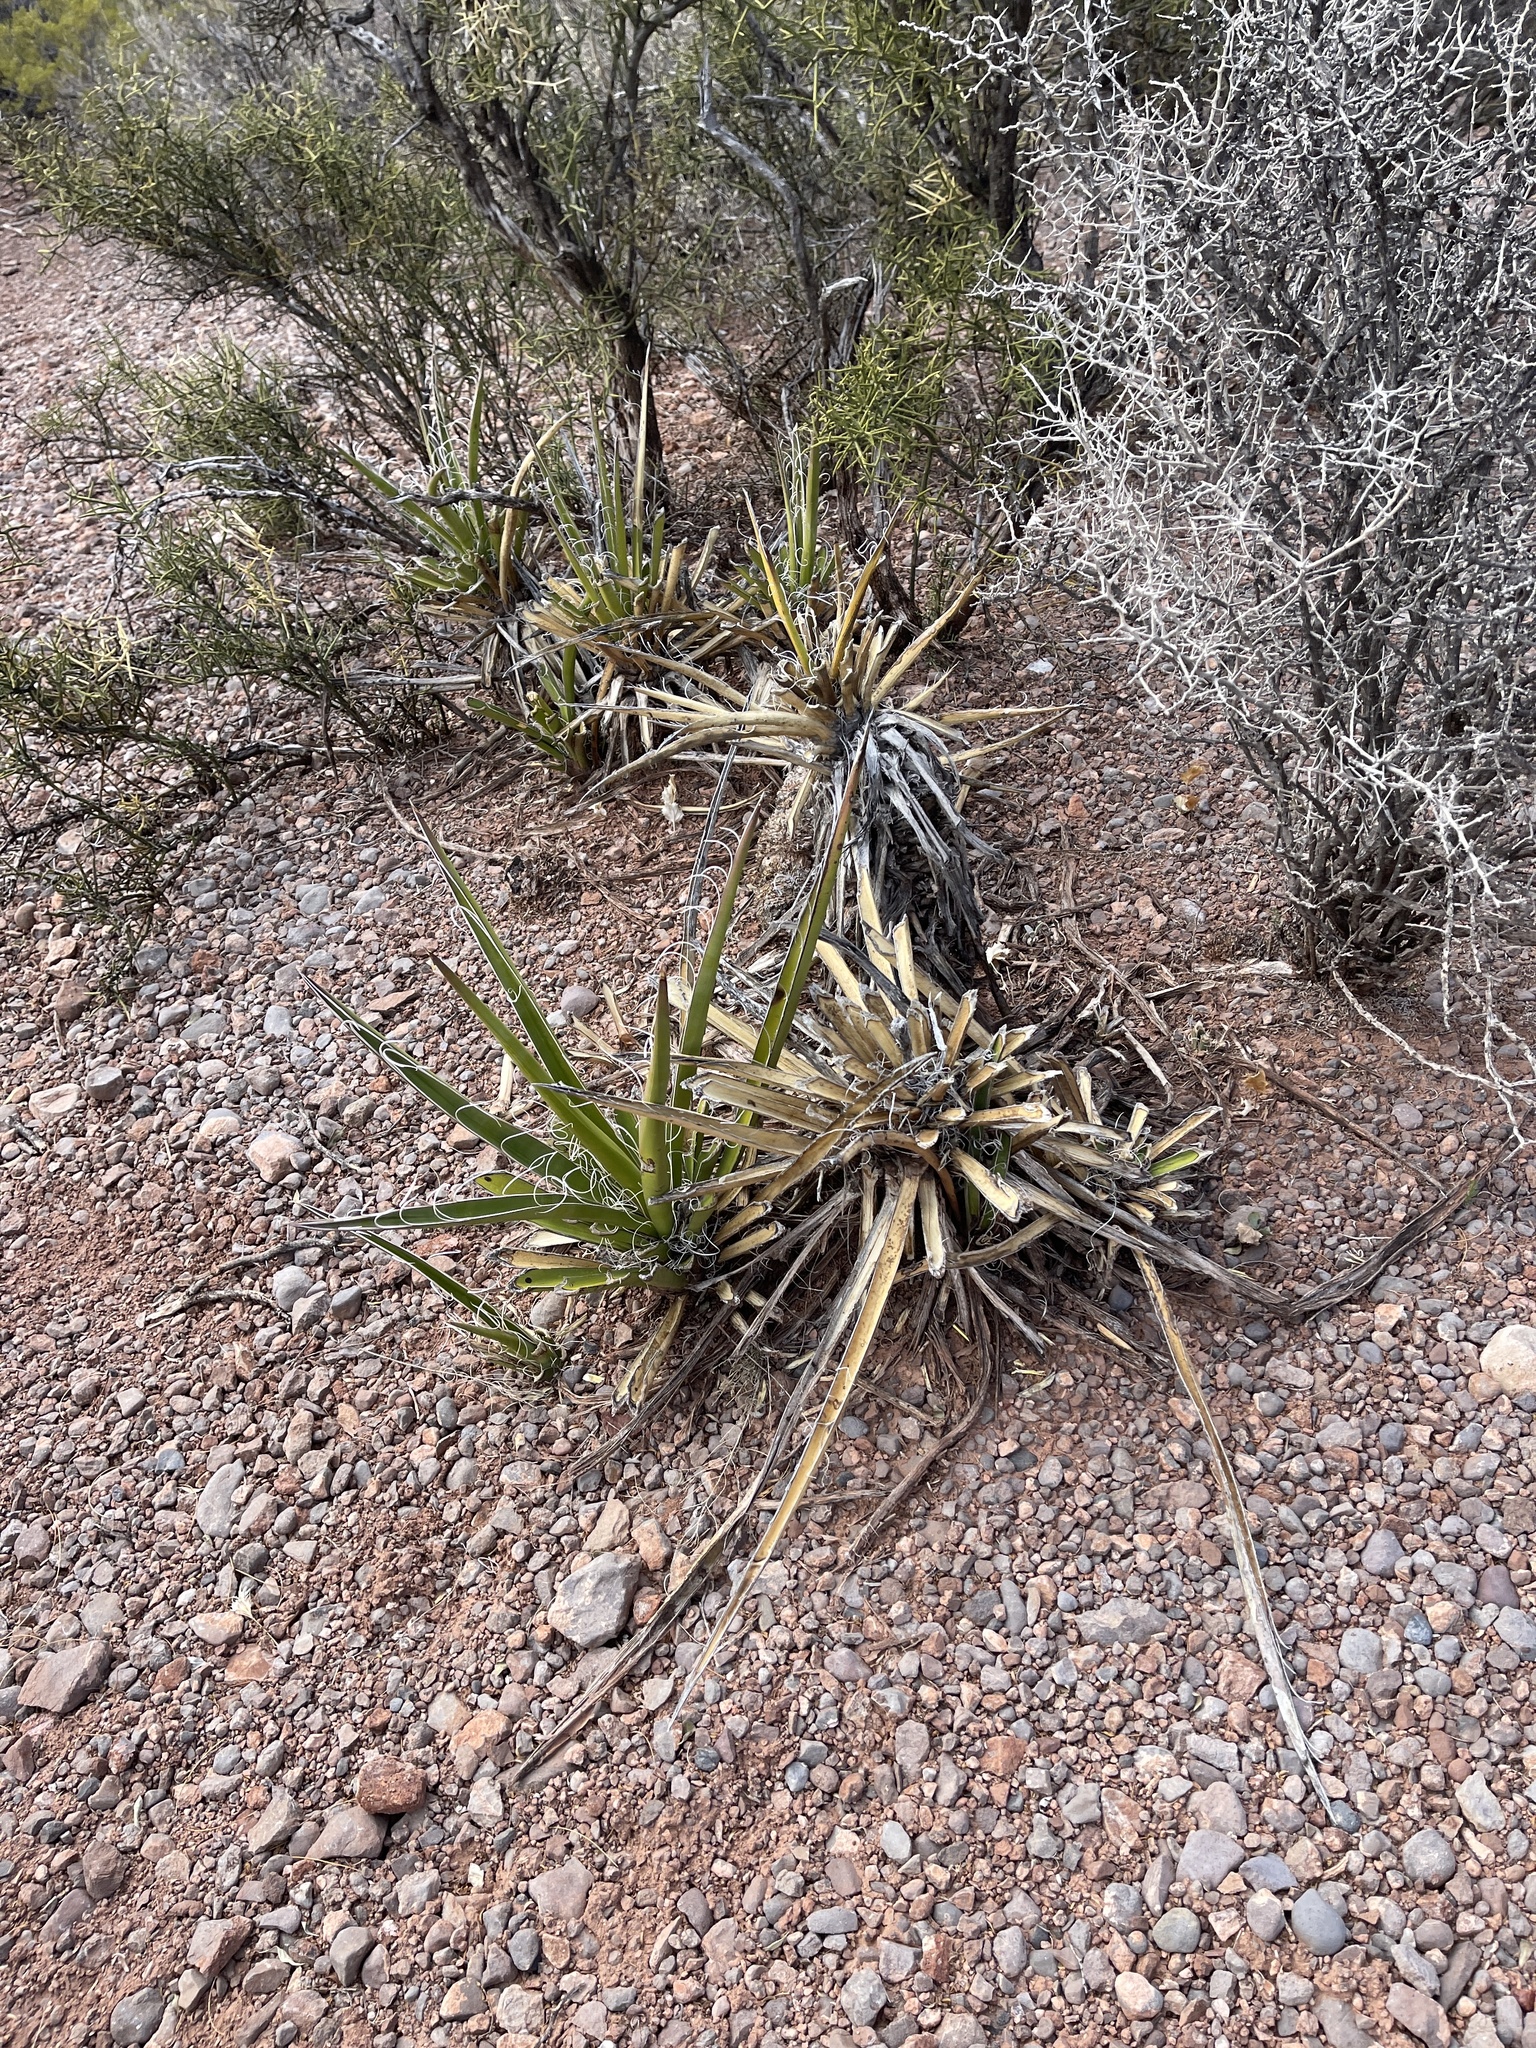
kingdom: Plantae
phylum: Tracheophyta
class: Liliopsida
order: Asparagales
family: Asparagaceae
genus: Yucca
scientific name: Yucca baccata
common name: Banana yucca
